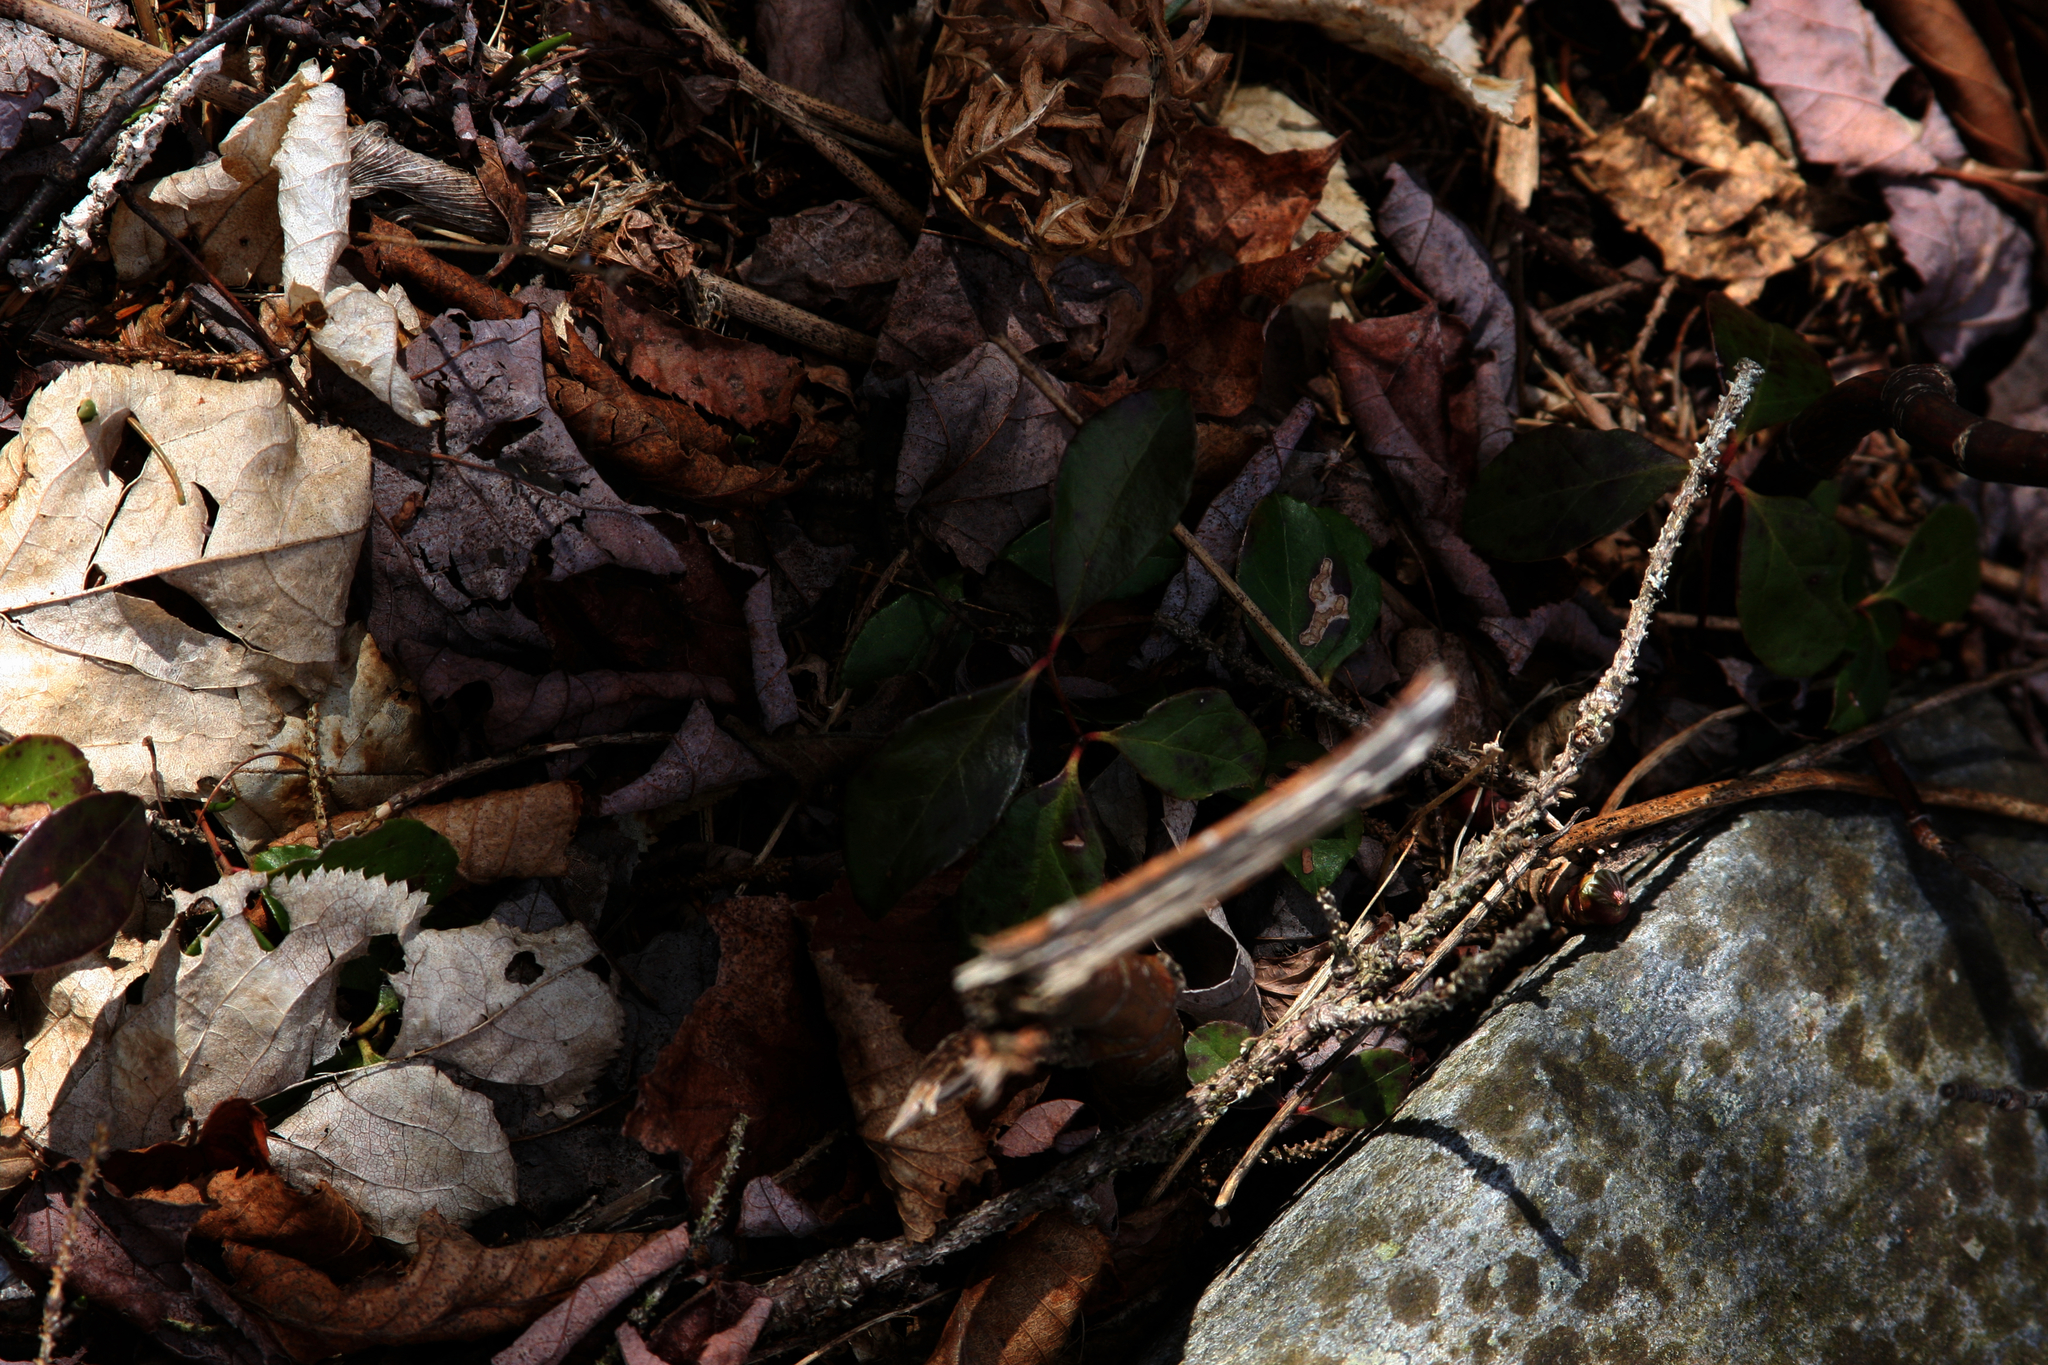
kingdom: Plantae
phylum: Tracheophyta
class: Magnoliopsida
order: Ericales
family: Ericaceae
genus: Gaultheria
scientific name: Gaultheria procumbens
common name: Checkerberry
